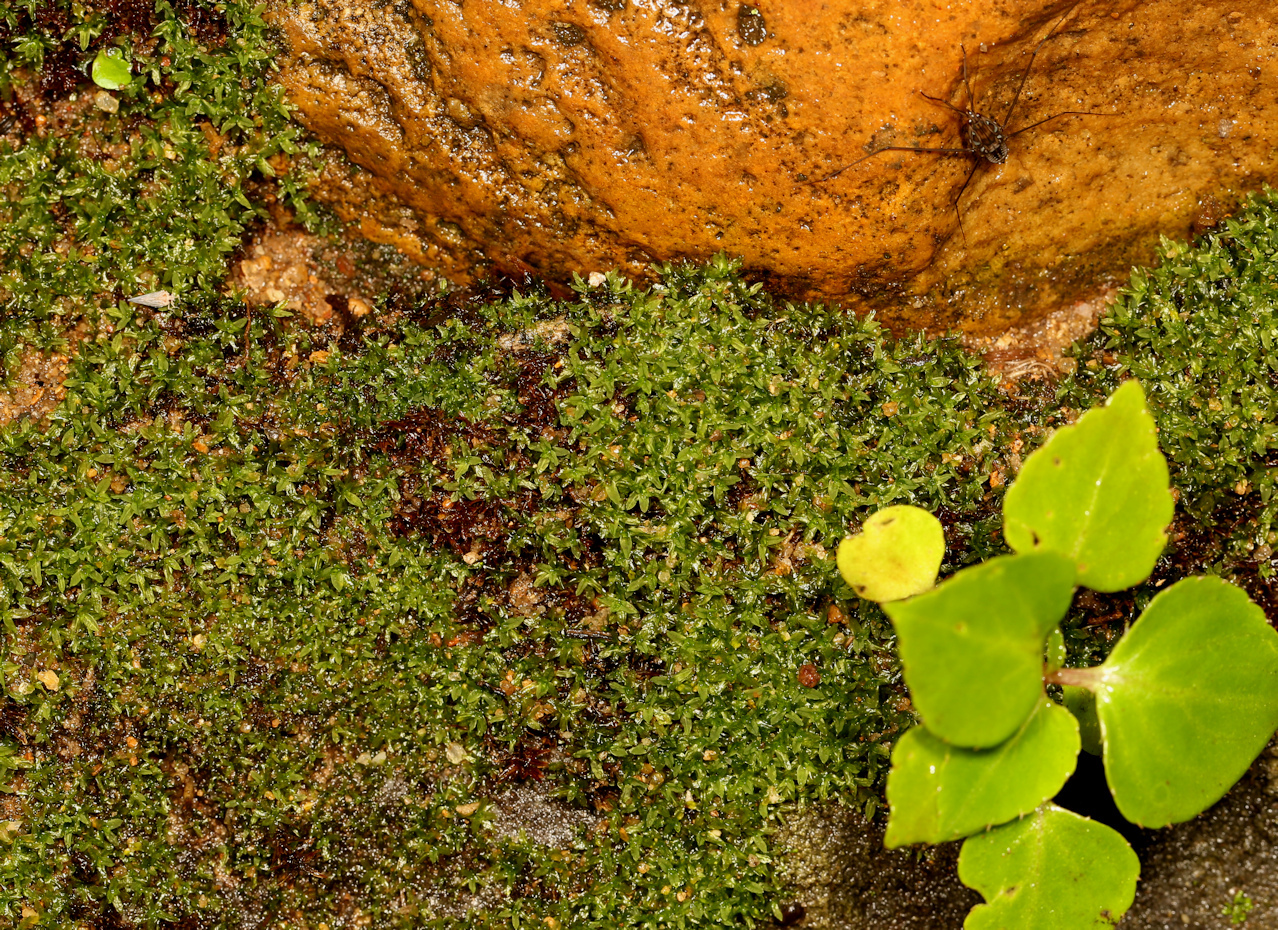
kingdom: Plantae
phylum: Bryophyta
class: Bryopsida
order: Pottiales
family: Pottiaceae
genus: Hyophila
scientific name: Hyophila involuta
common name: Hyophila moss
